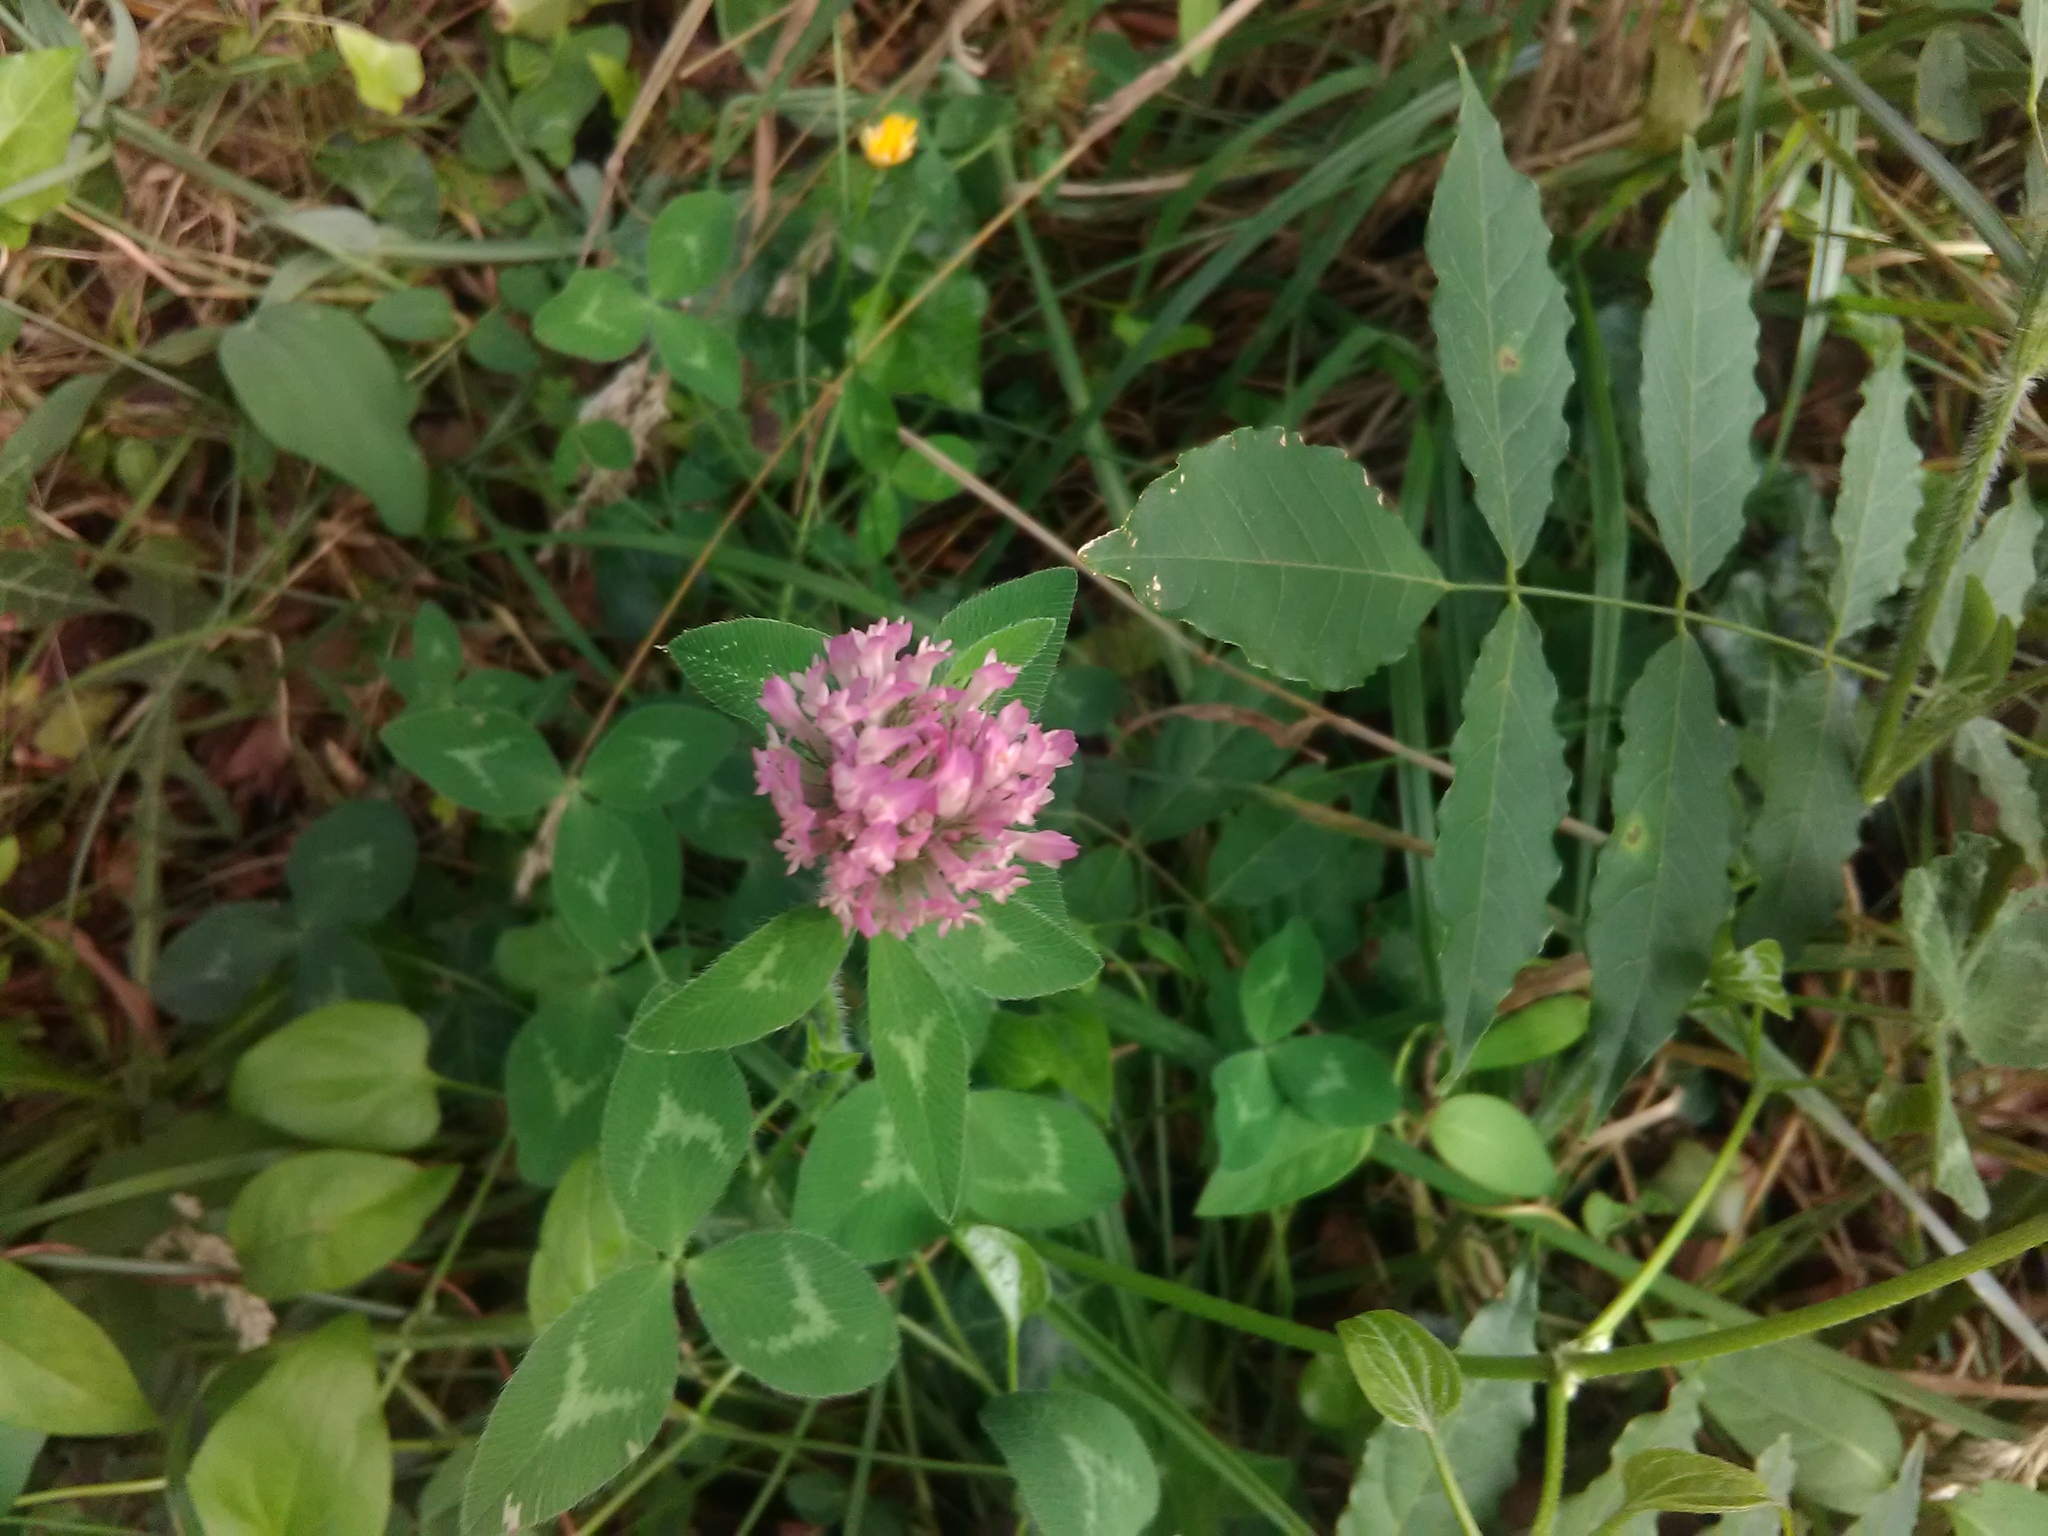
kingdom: Plantae
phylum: Tracheophyta
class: Magnoliopsida
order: Fabales
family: Fabaceae
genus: Trifolium
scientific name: Trifolium pratense
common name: Red clover
